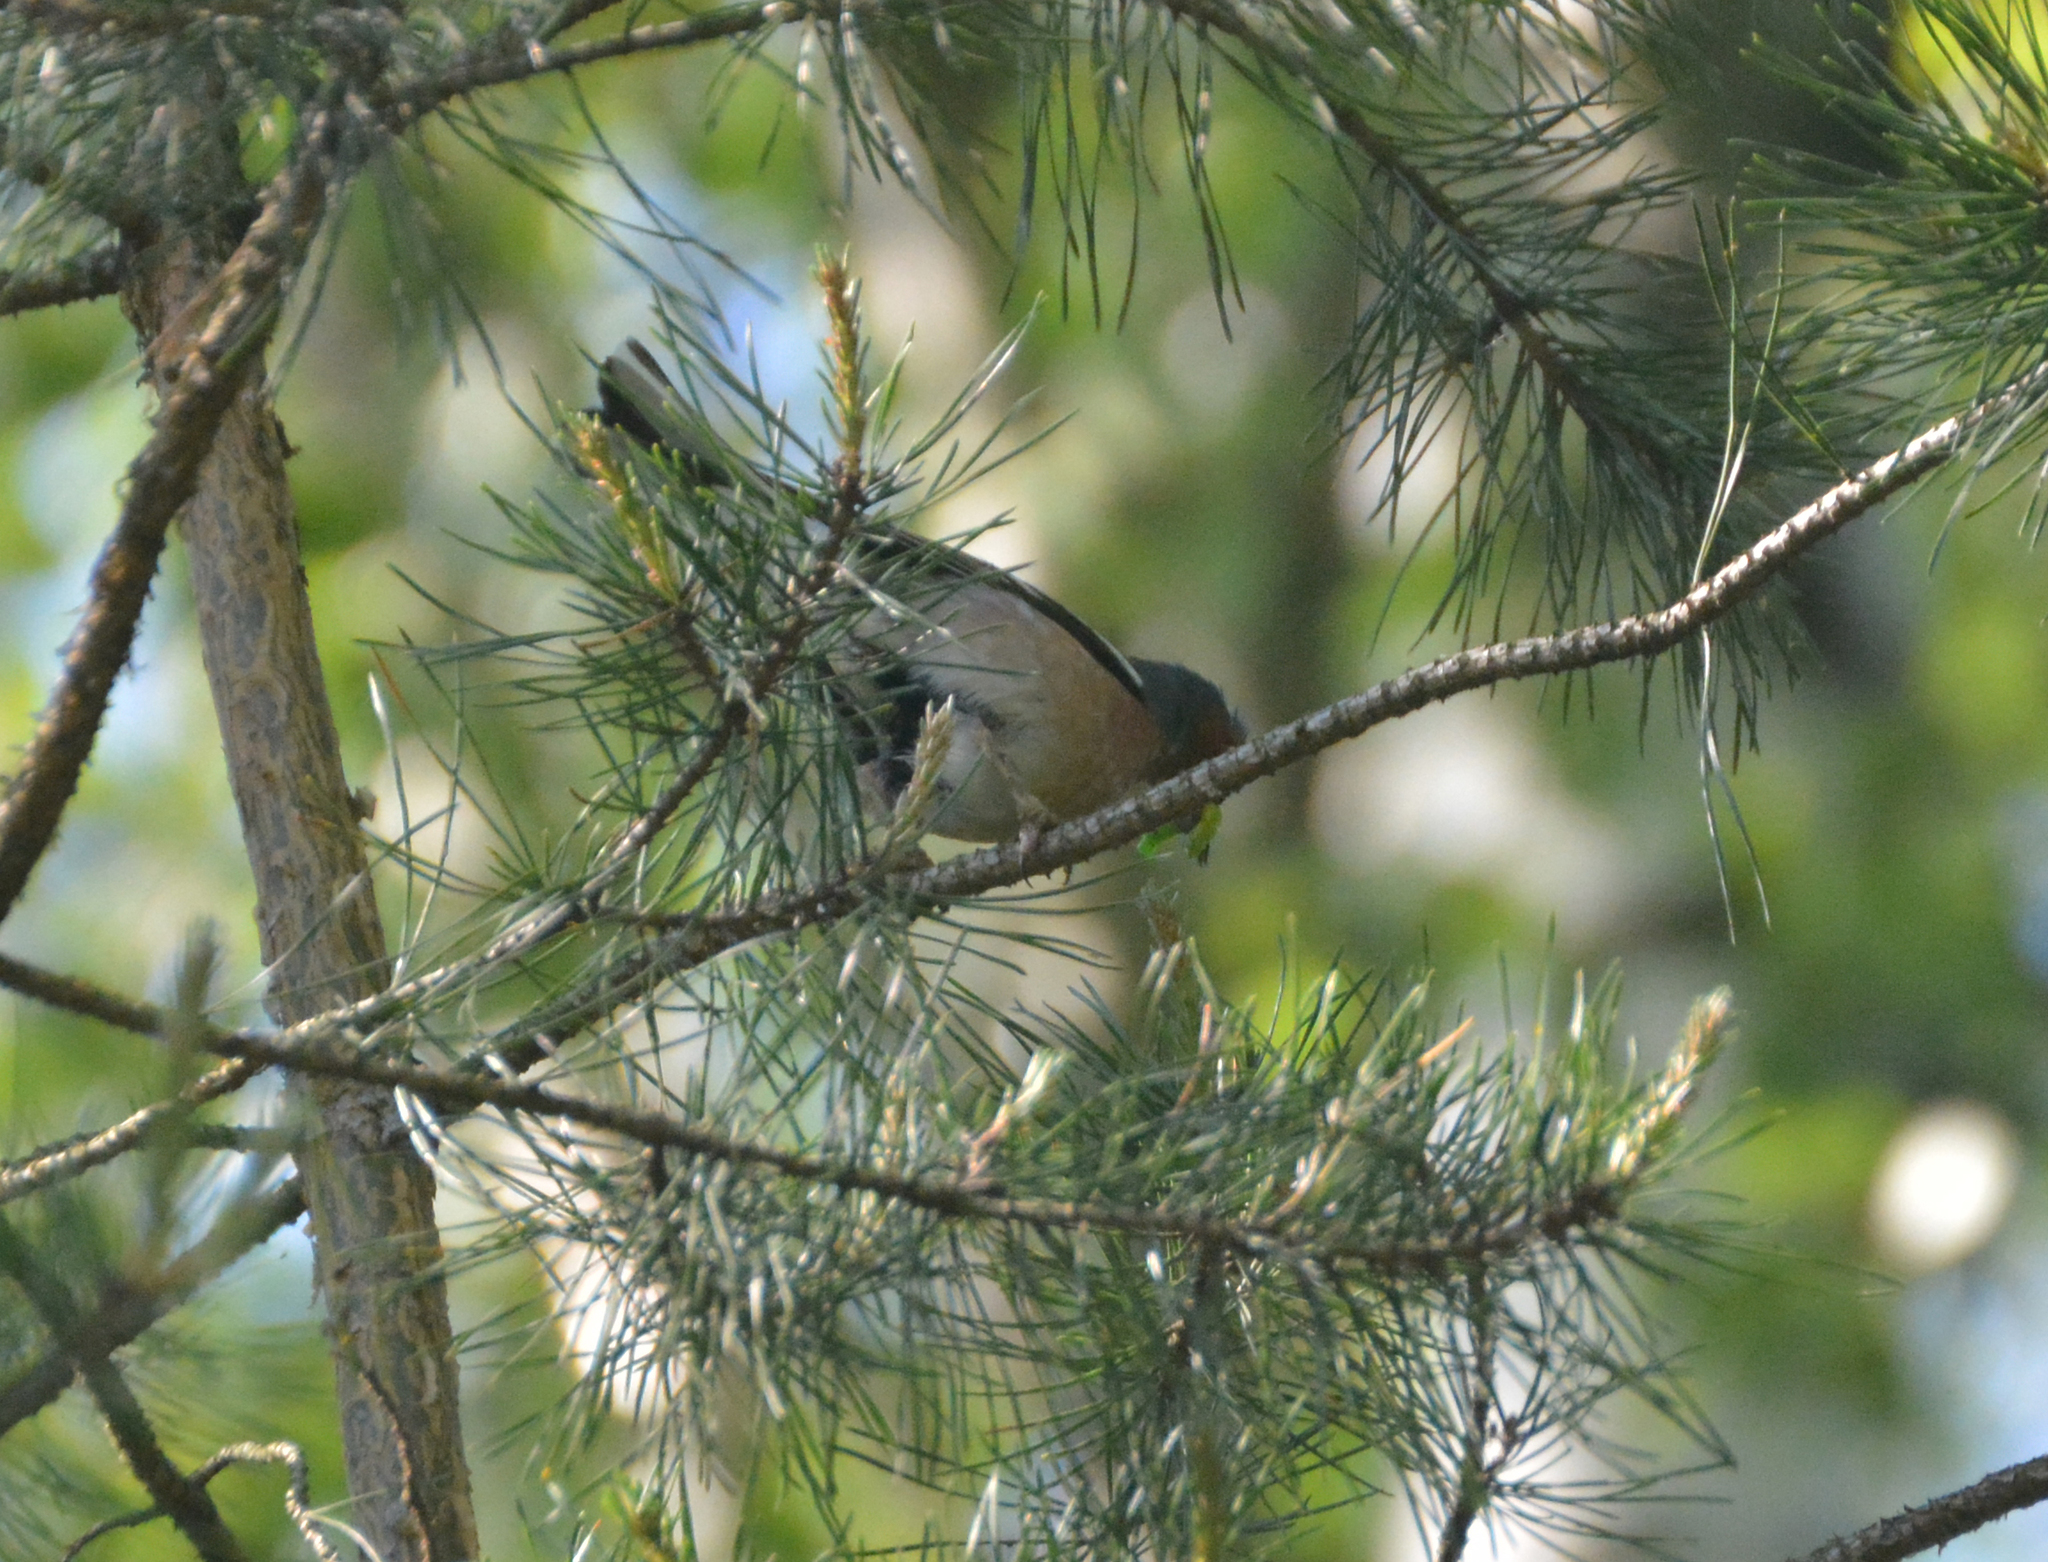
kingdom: Animalia
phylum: Chordata
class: Aves
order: Passeriformes
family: Fringillidae
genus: Fringilla
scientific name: Fringilla coelebs
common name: Common chaffinch
